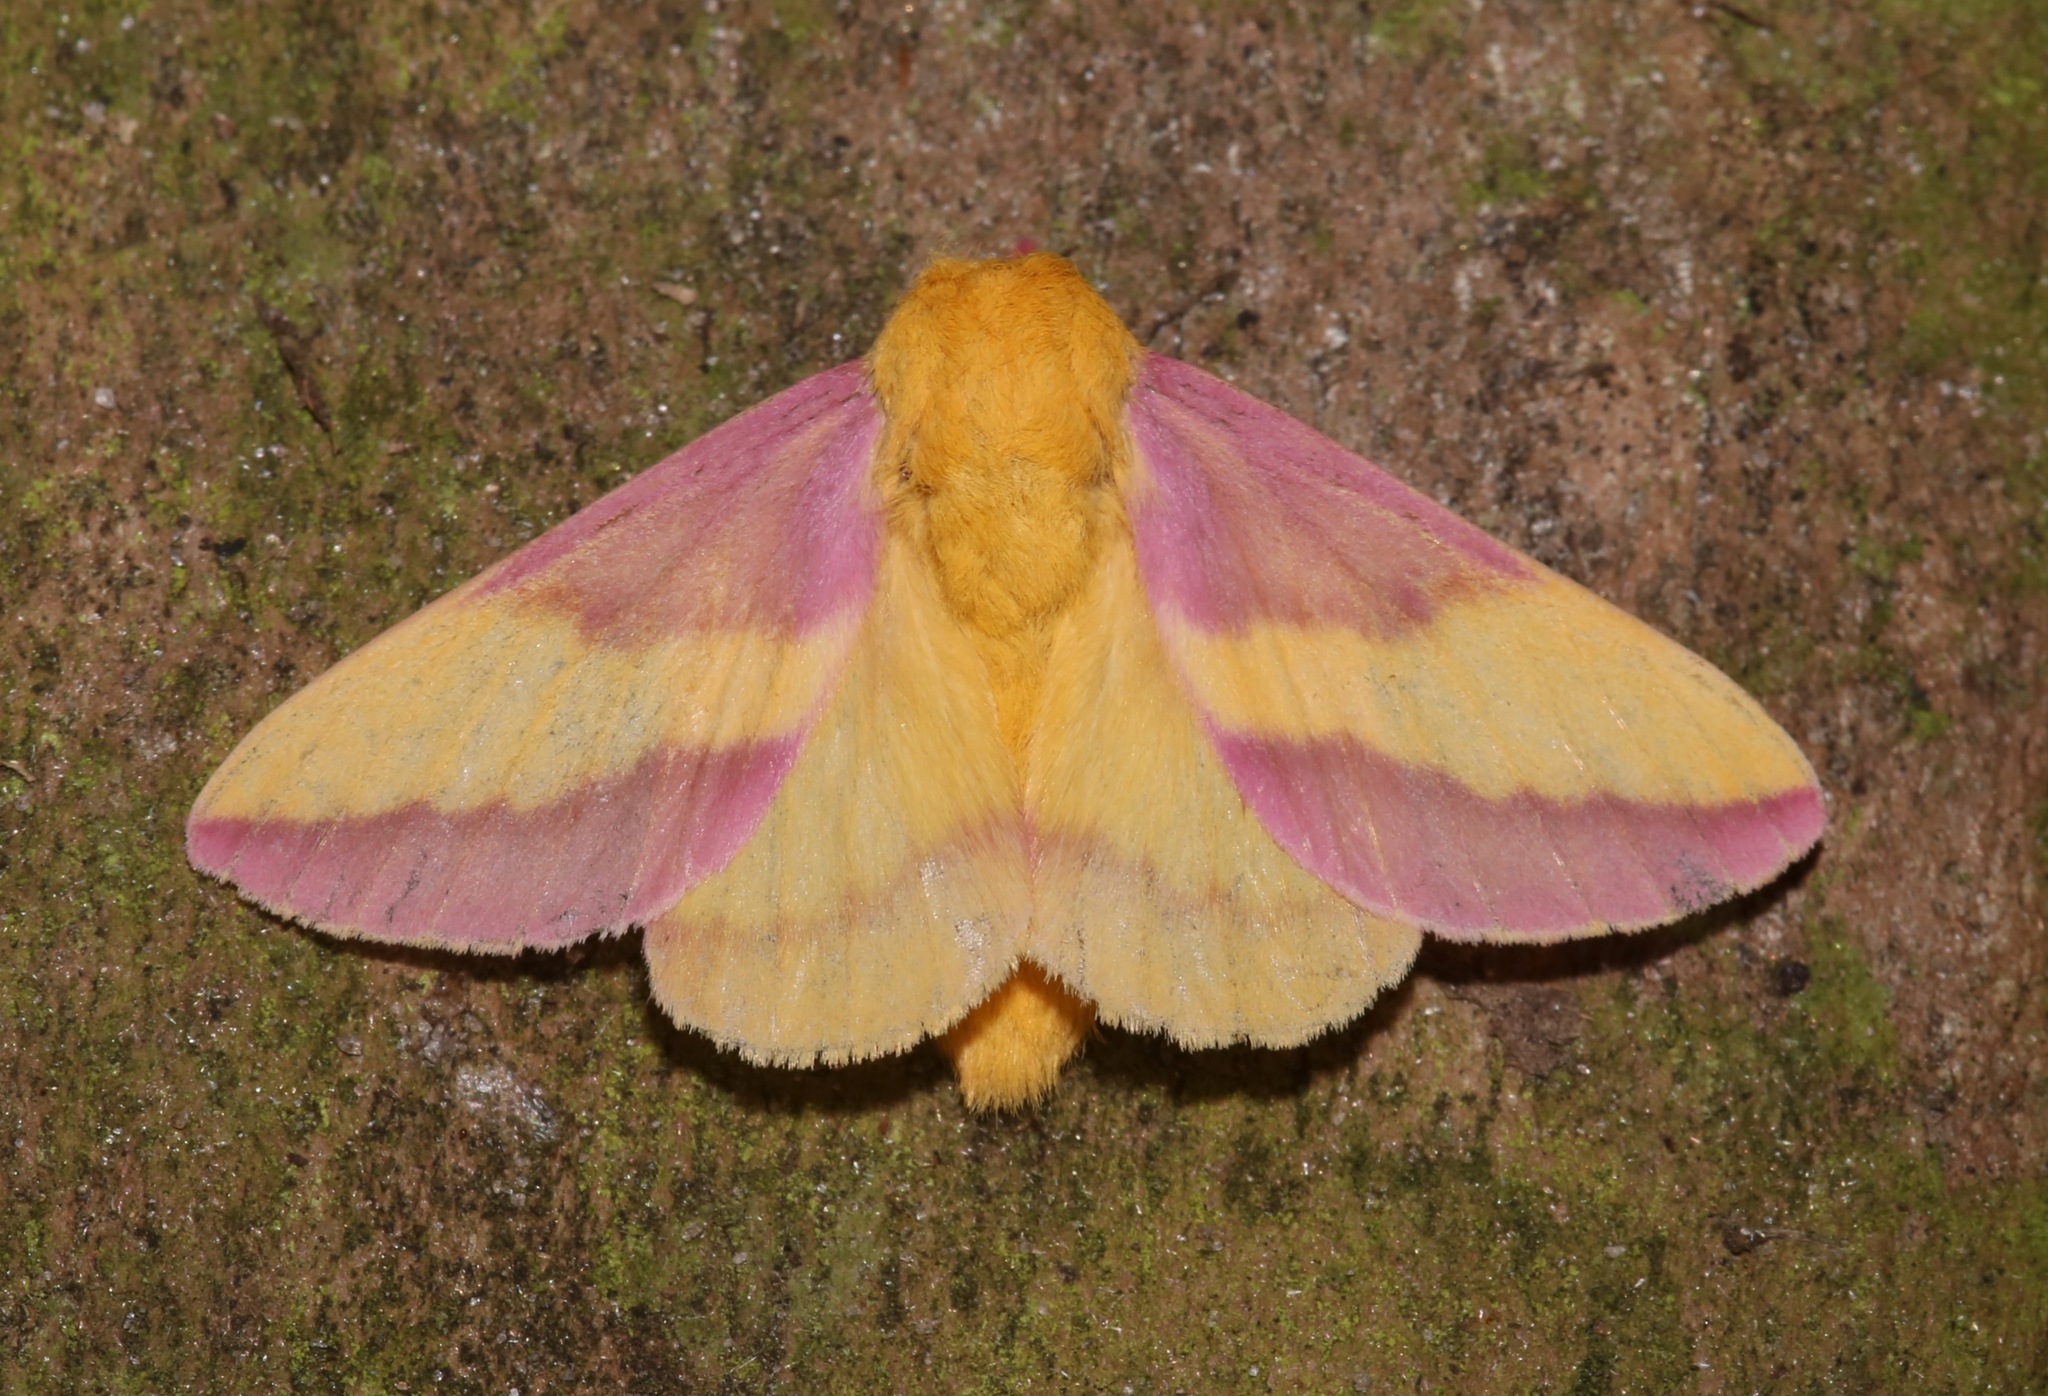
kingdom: Animalia
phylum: Arthropoda
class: Insecta
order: Lepidoptera
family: Saturniidae
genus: Dryocampa
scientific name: Dryocampa rubicunda
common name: Rosy maple moth
